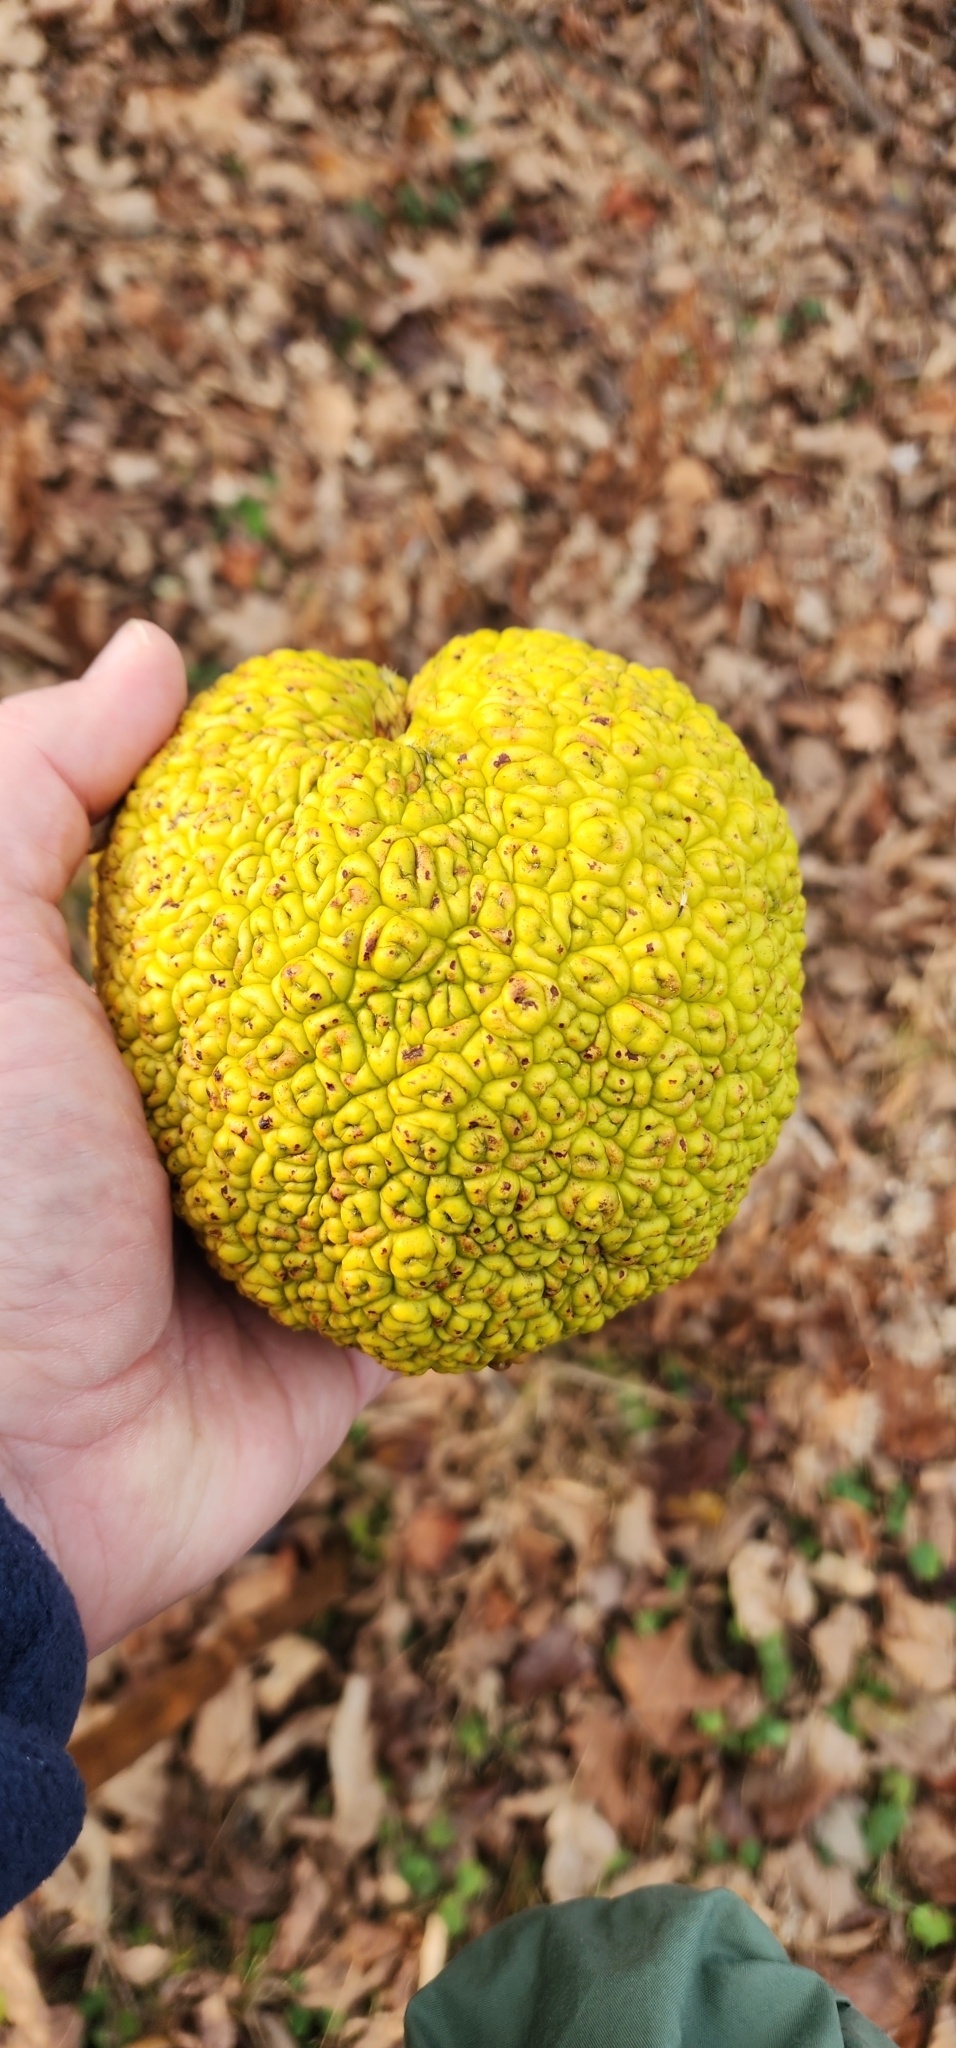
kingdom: Plantae
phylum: Tracheophyta
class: Magnoliopsida
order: Rosales
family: Moraceae
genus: Maclura
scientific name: Maclura pomifera
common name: Osage-orange
